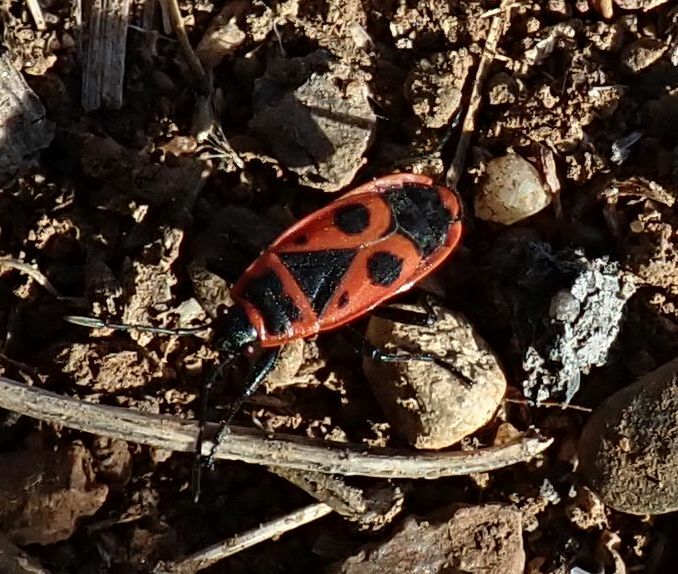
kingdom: Animalia
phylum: Arthropoda
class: Insecta
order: Hemiptera
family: Pyrrhocoridae
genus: Pyrrhocoris
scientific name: Pyrrhocoris apterus
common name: Firebug
